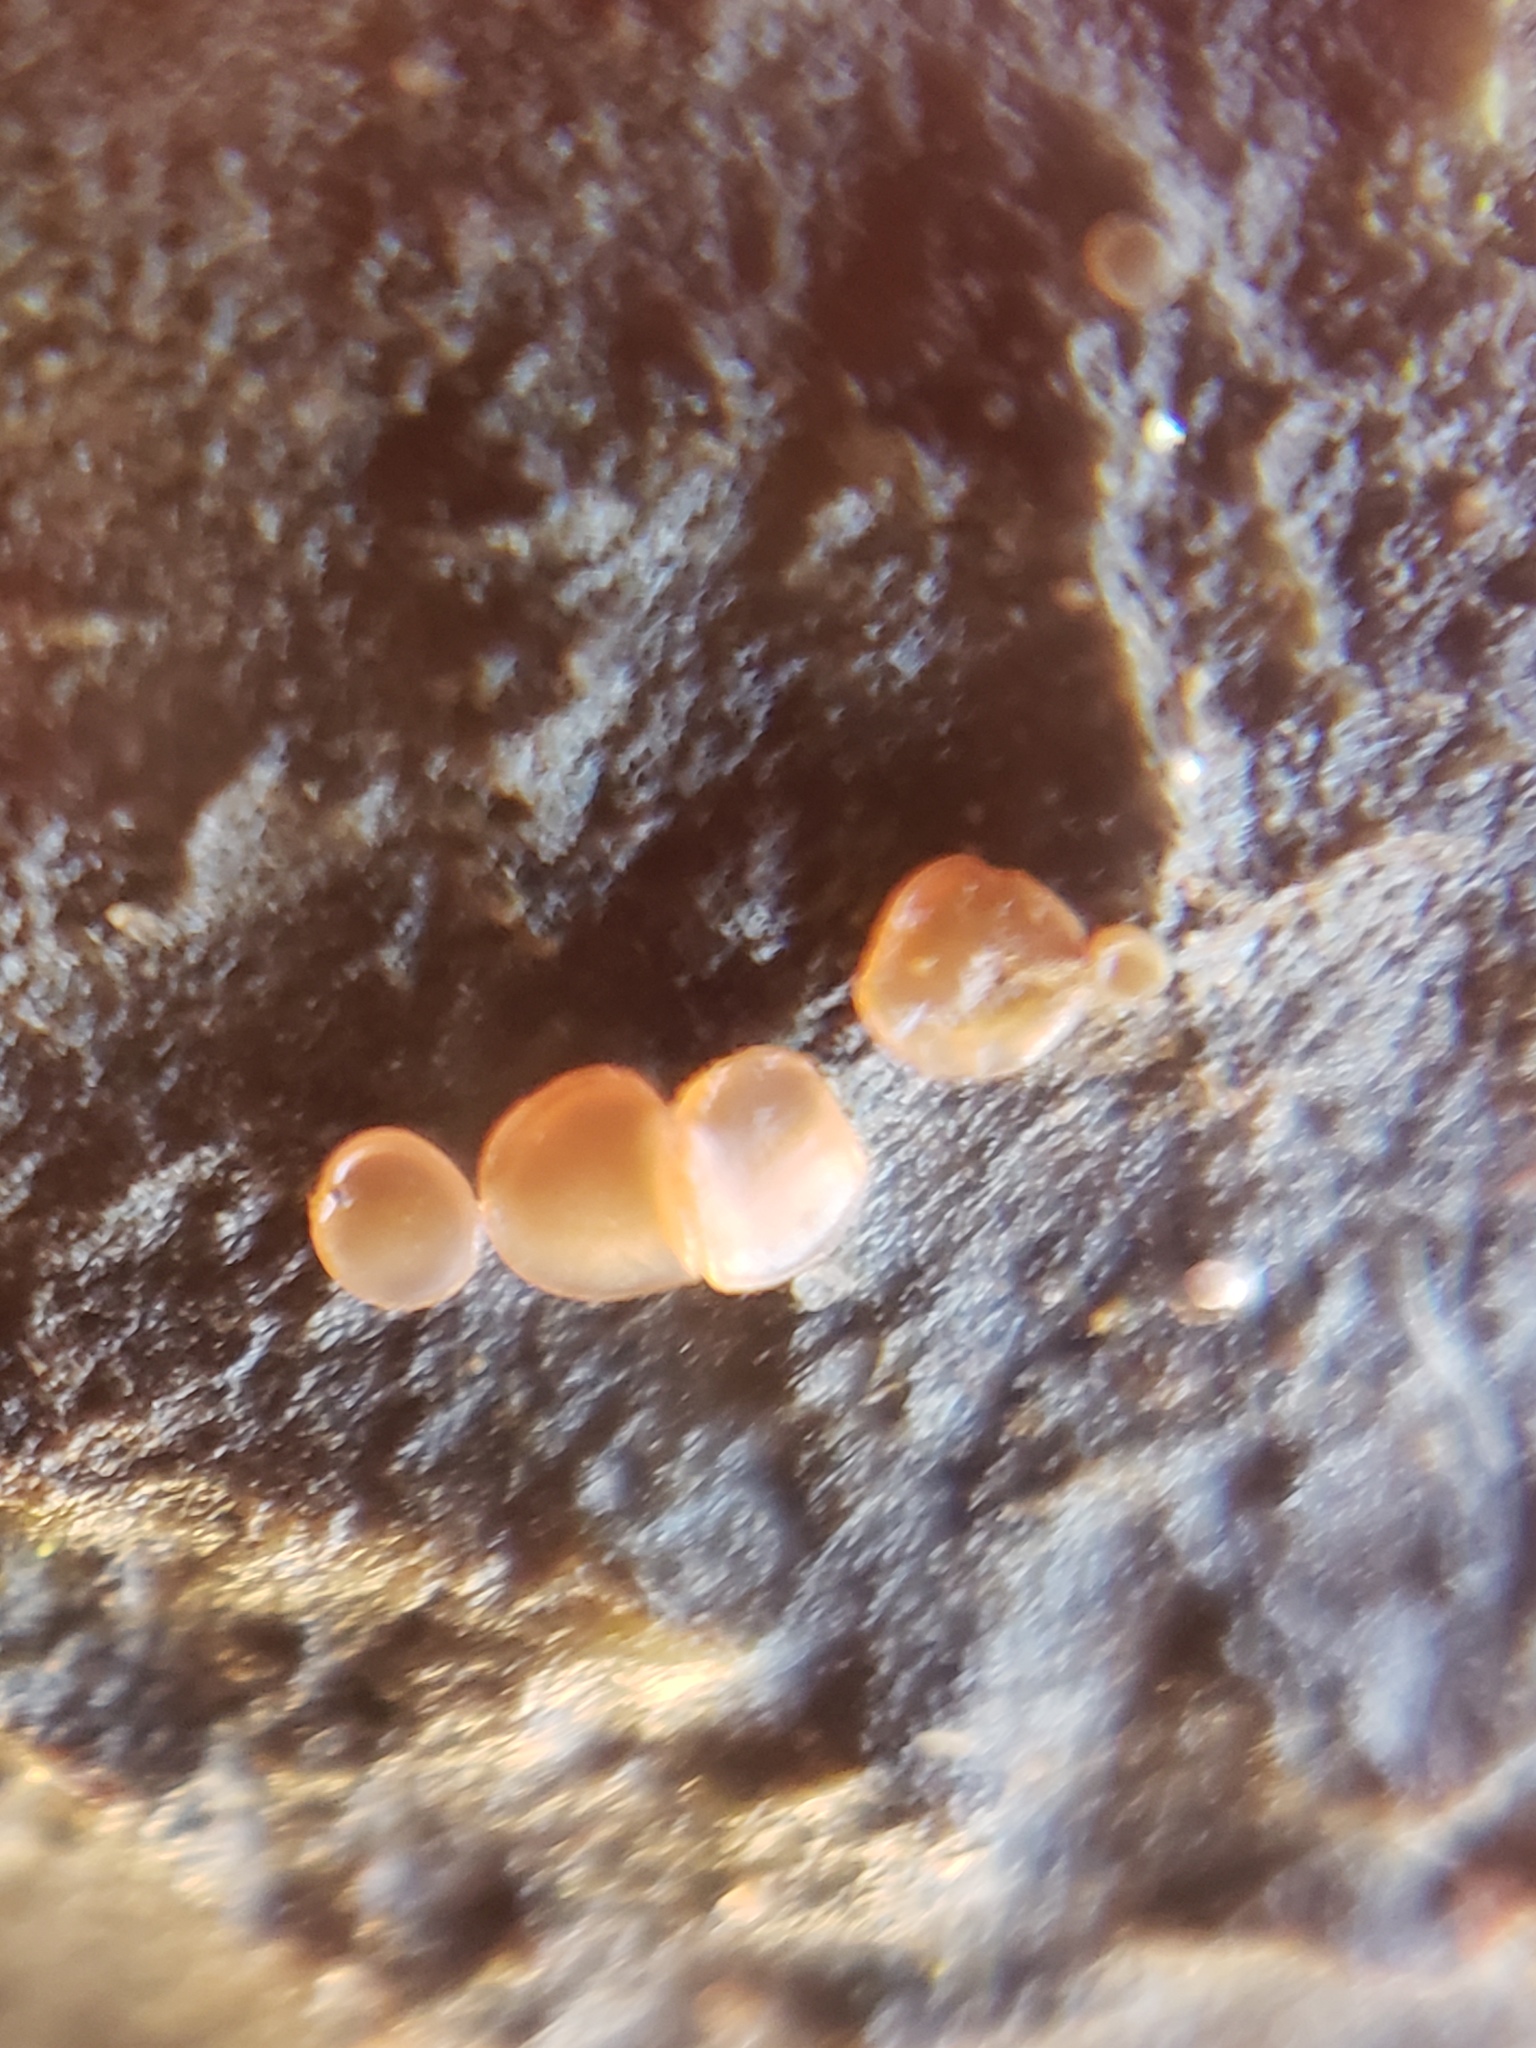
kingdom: Fungi
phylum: Ascomycota
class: Orbiliomycetes
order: Orbiliales
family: Orbiliaceae
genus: Orbilia
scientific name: Orbilia
